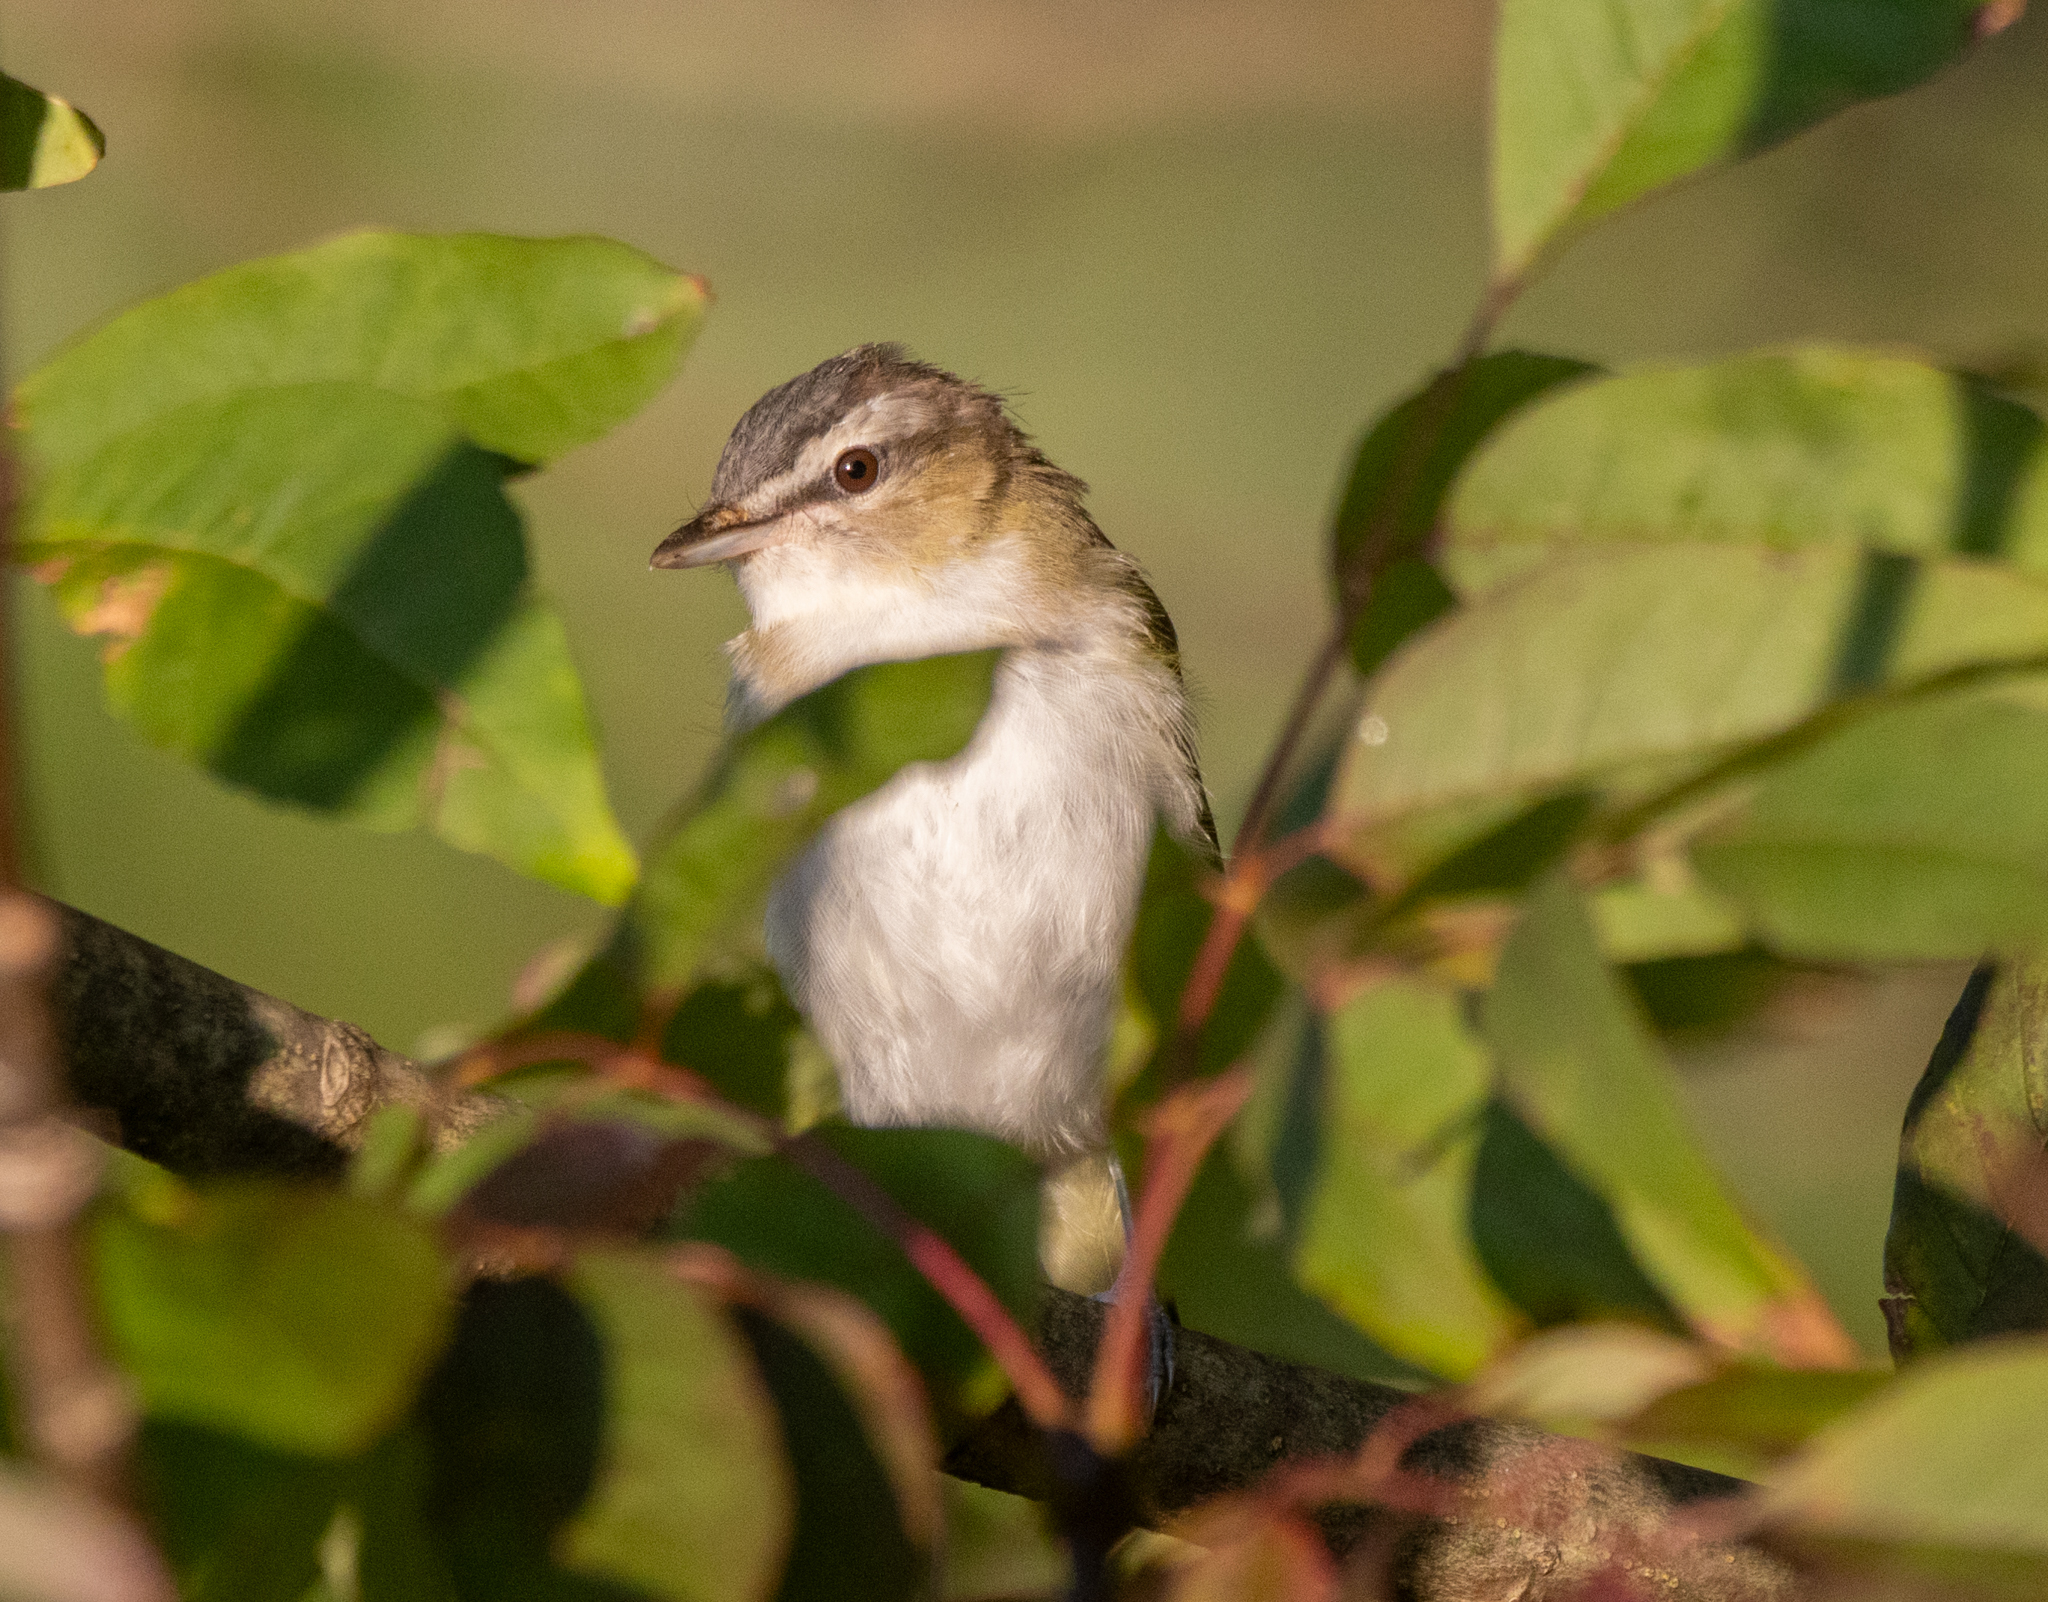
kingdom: Animalia
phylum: Chordata
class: Aves
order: Passeriformes
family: Vireonidae
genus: Vireo
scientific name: Vireo olivaceus
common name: Red-eyed vireo
